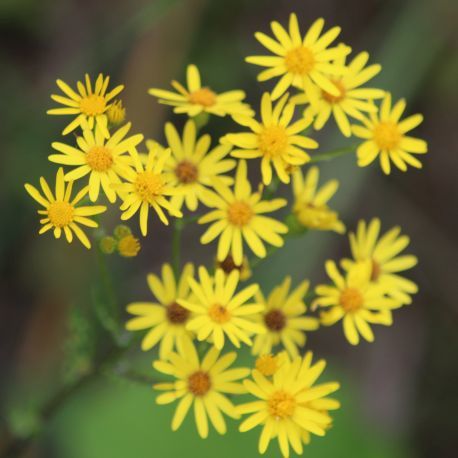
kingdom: Plantae
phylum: Tracheophyta
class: Magnoliopsida
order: Asterales
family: Asteraceae
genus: Jacobaea
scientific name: Jacobaea vulgaris
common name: Stinking willie
